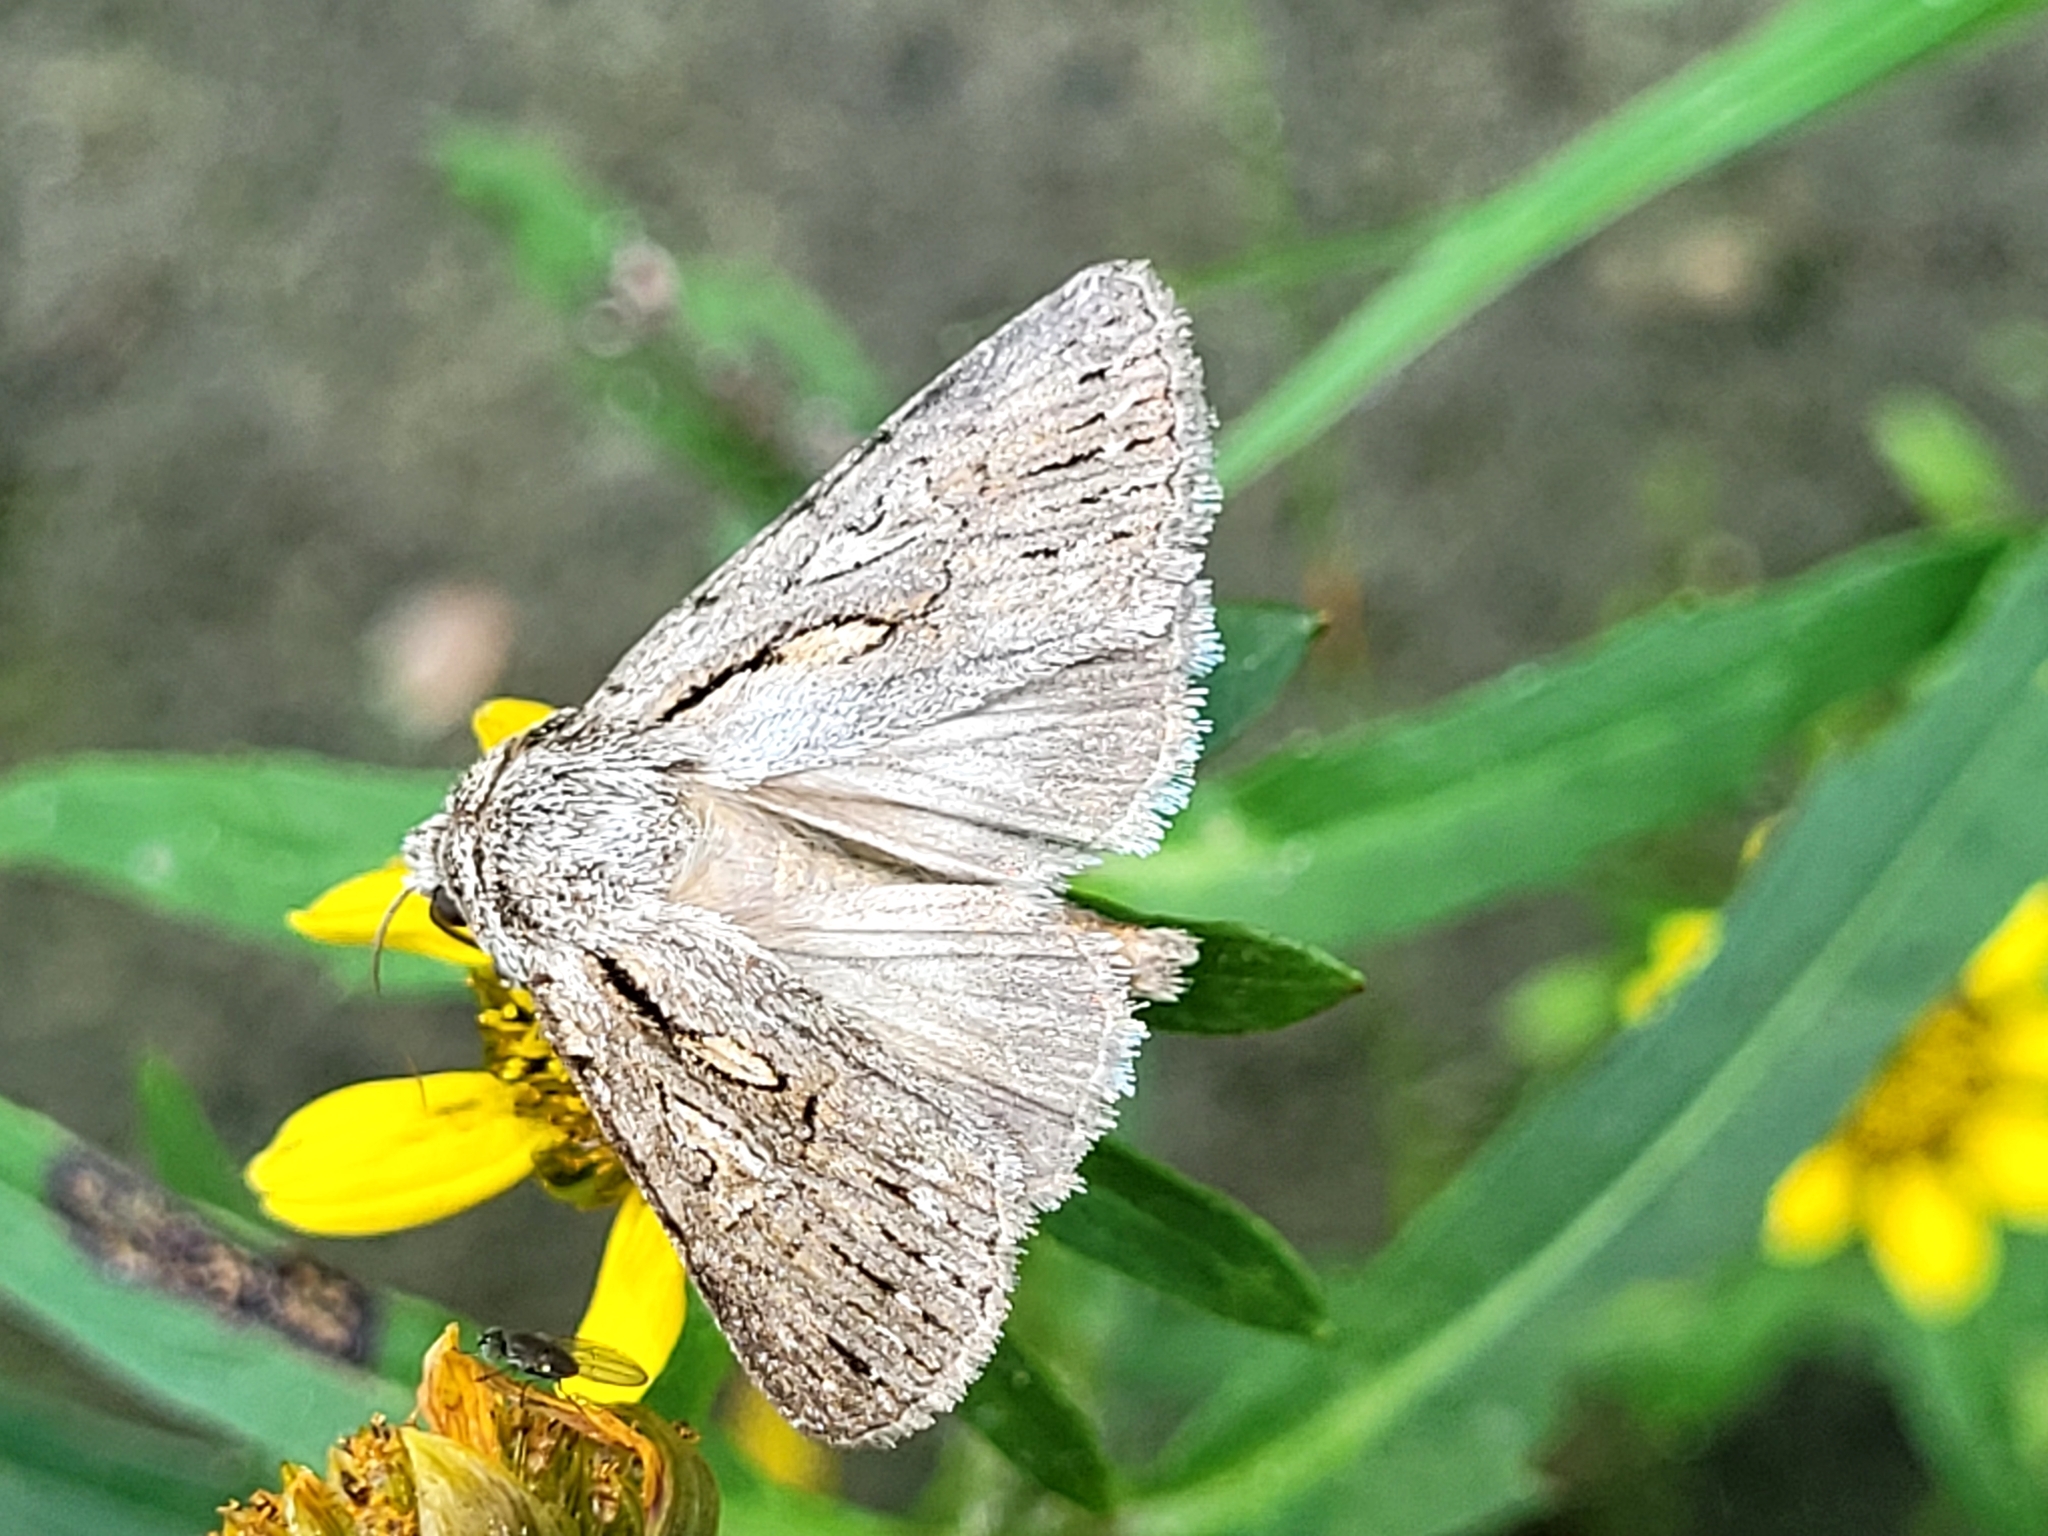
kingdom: Animalia
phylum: Arthropoda
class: Insecta
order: Lepidoptera
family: Noctuidae
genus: Sympistis
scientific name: Sympistis mackiei
